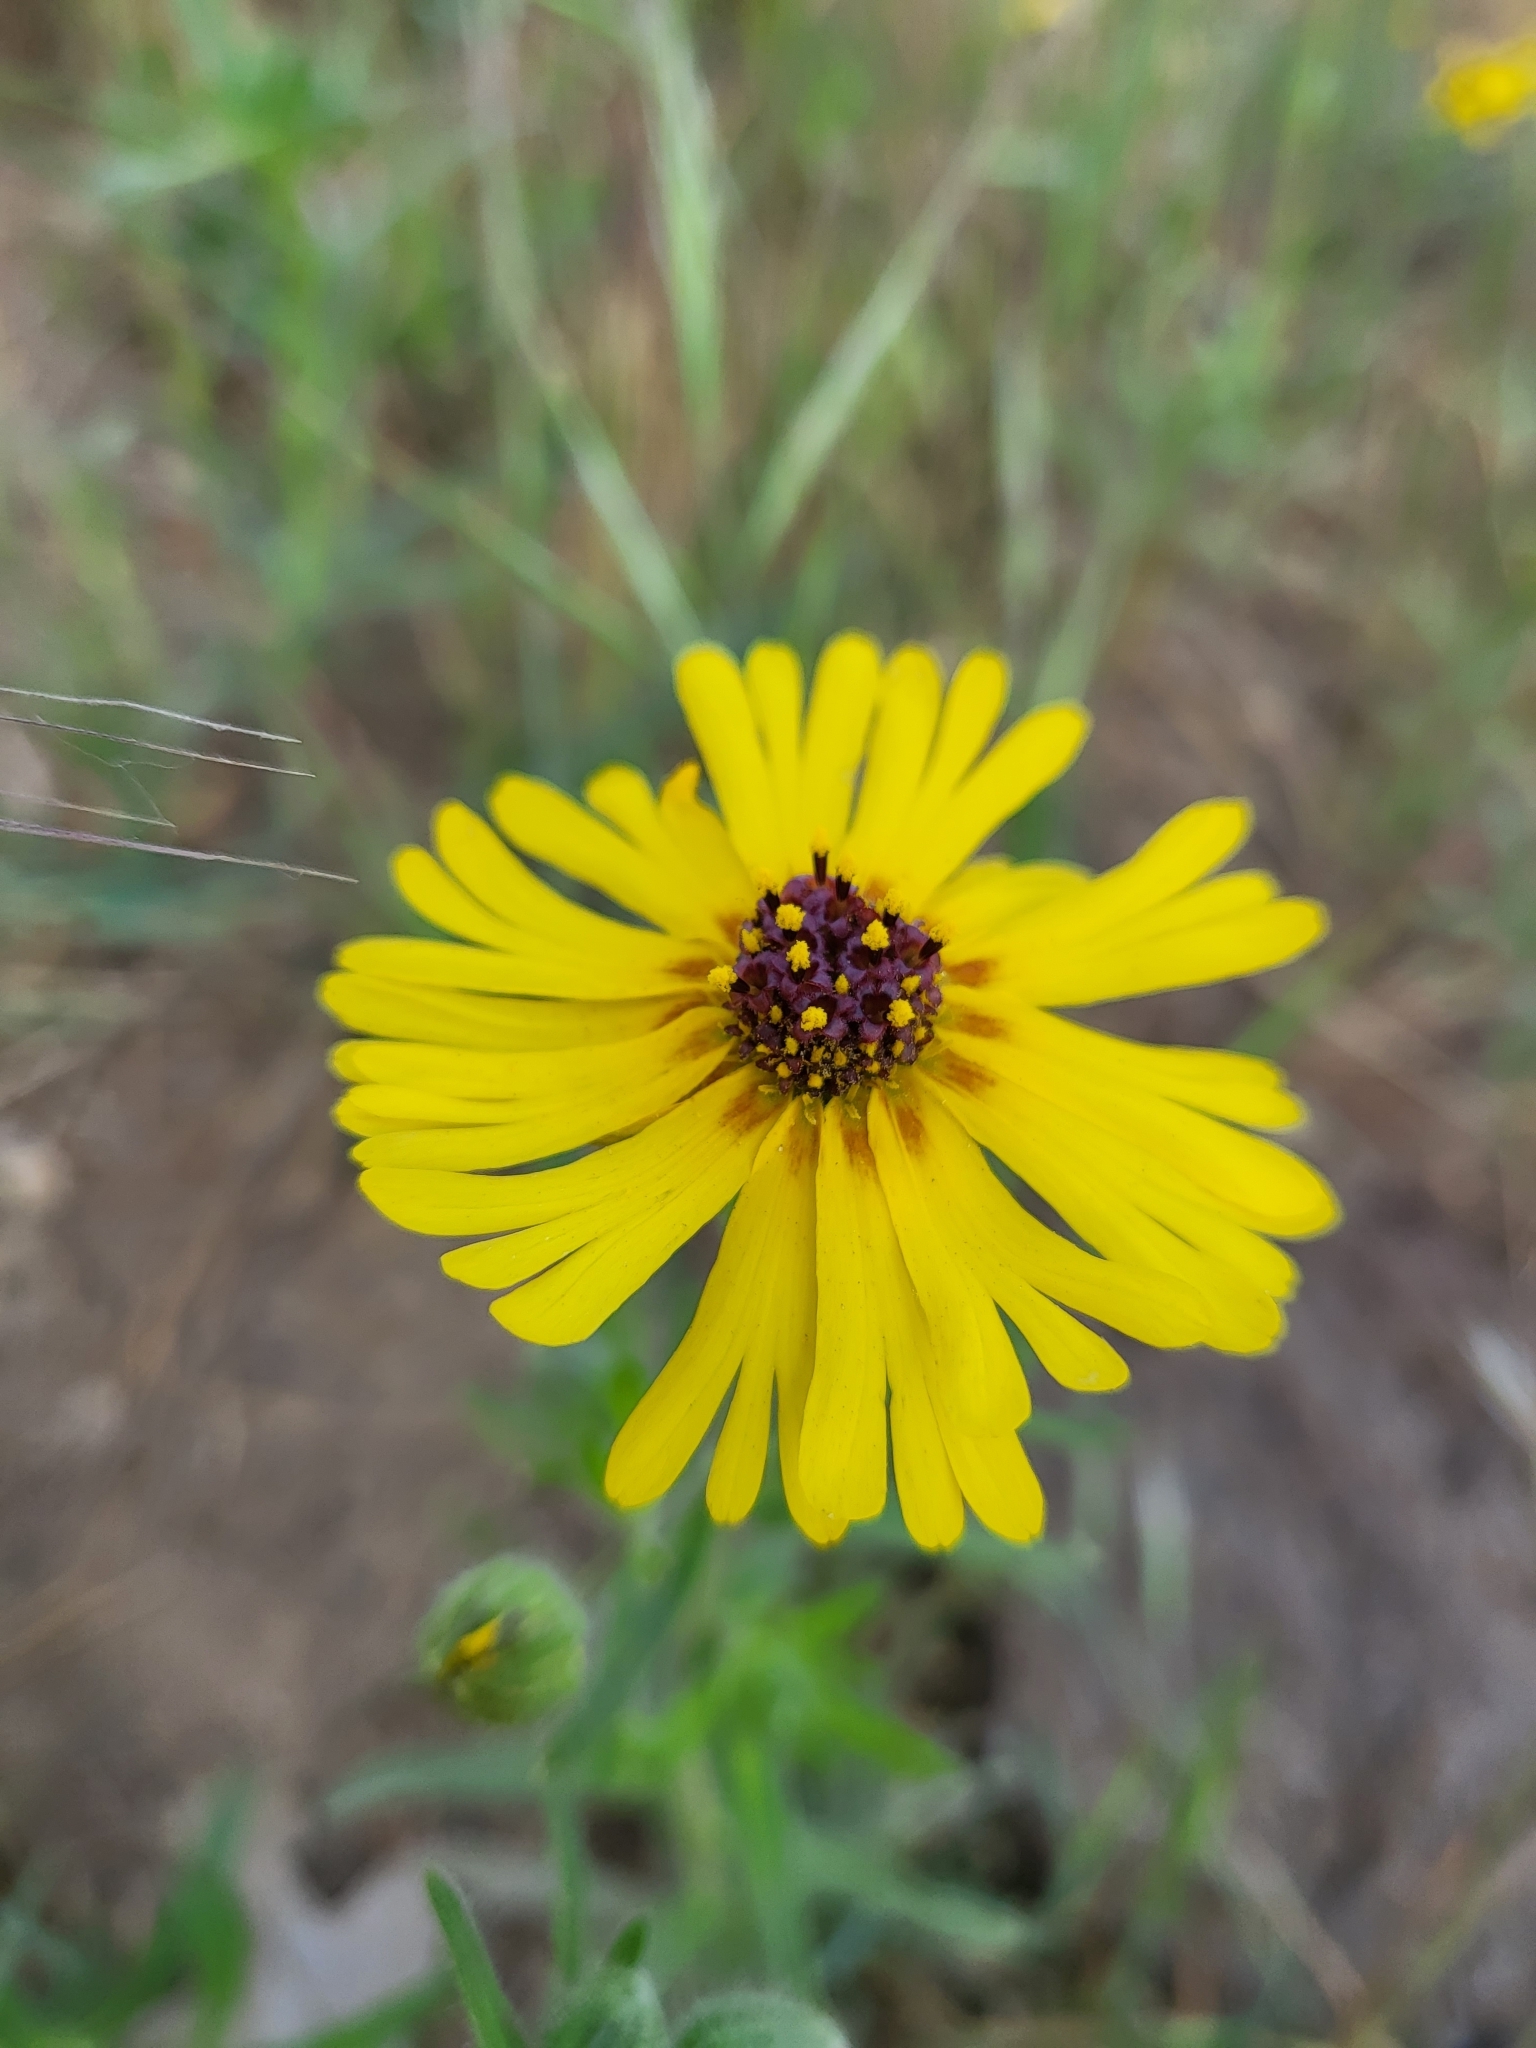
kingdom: Plantae
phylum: Tracheophyta
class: Magnoliopsida
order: Asterales
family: Asteraceae
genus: Madia
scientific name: Madia elegans
